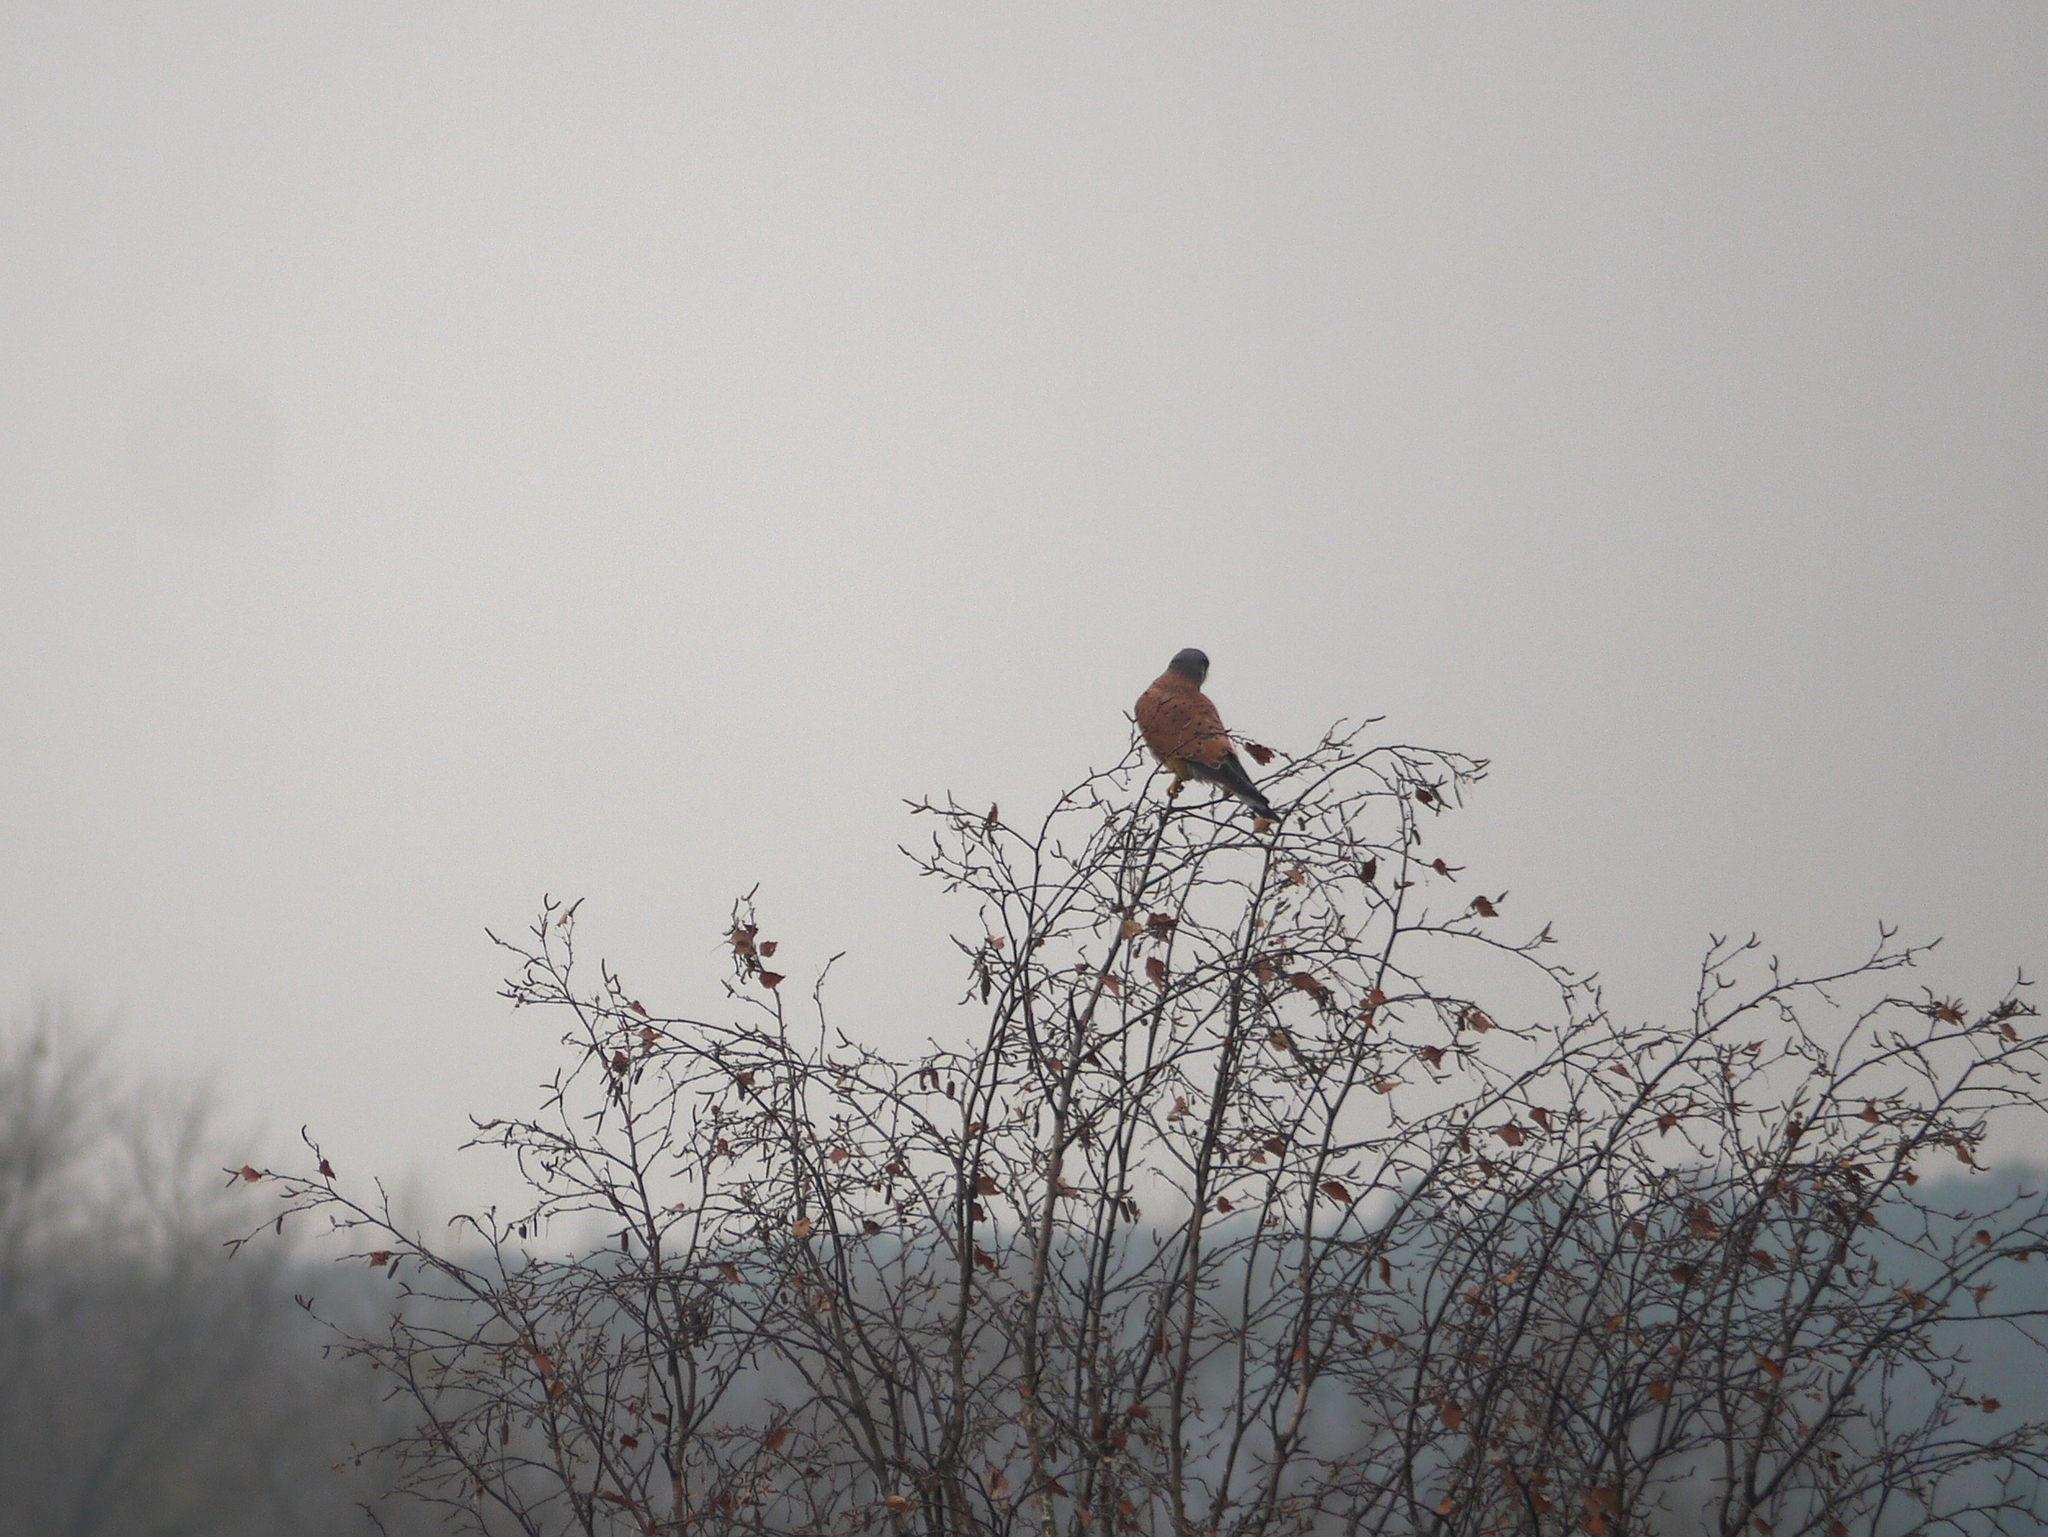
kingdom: Animalia
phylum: Chordata
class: Aves
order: Falconiformes
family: Falconidae
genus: Falco
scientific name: Falco tinnunculus
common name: Common kestrel
